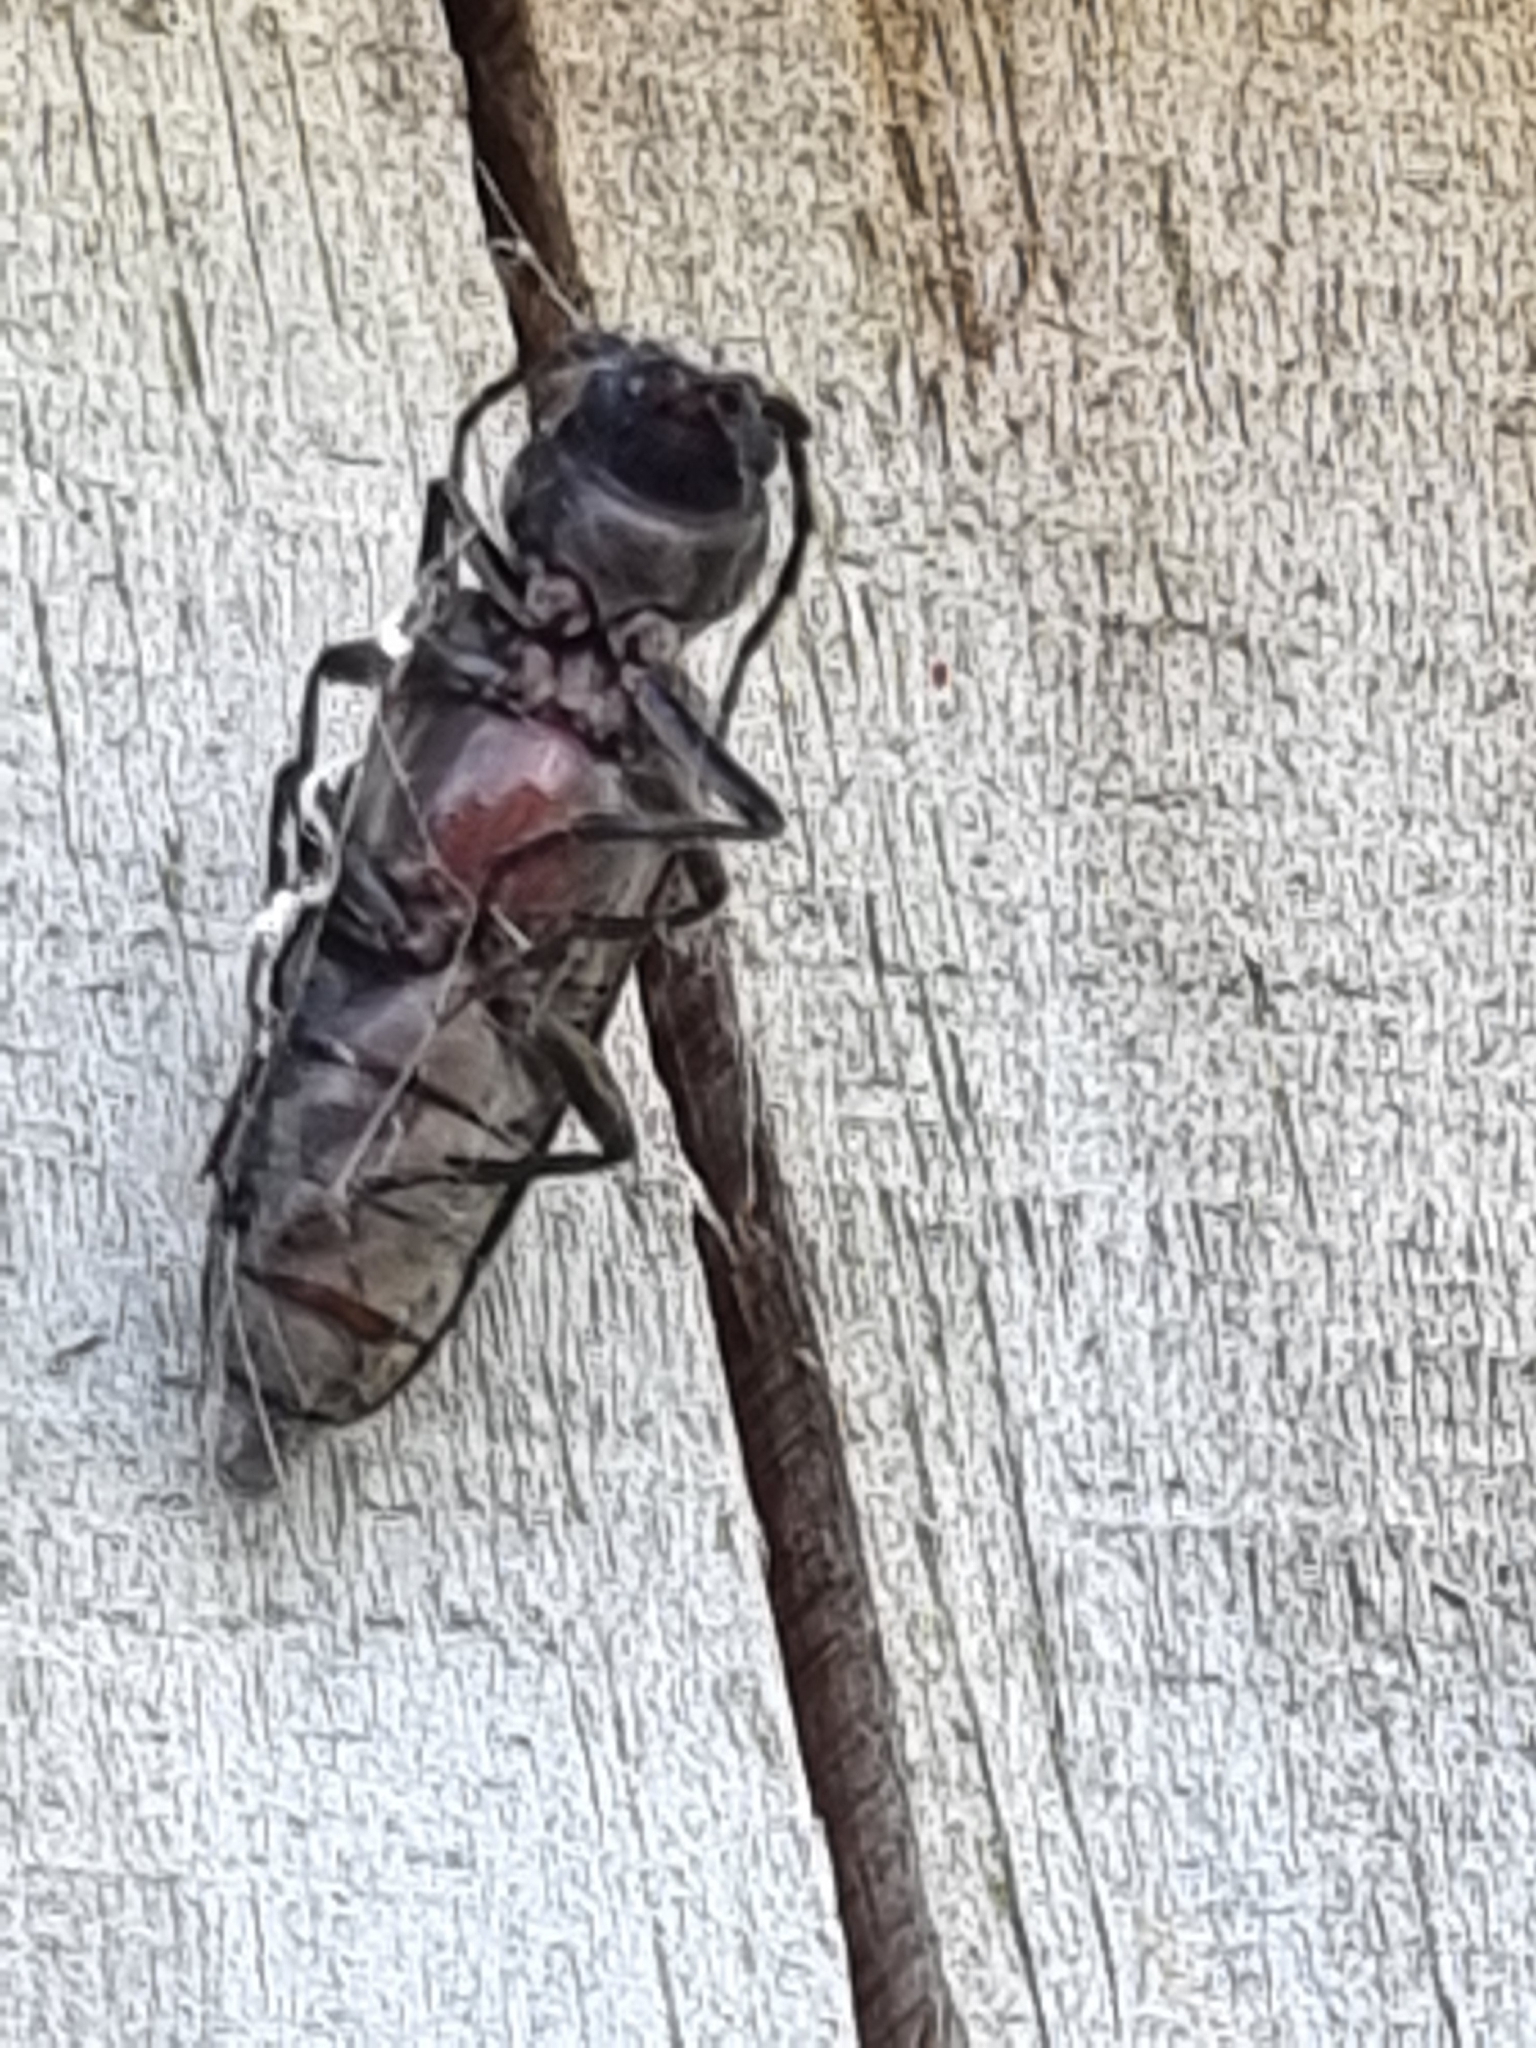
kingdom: Animalia
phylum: Arthropoda
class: Insecta
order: Coleoptera
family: Cerambycidae
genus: Arhopalus
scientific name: Arhopalus ferus
